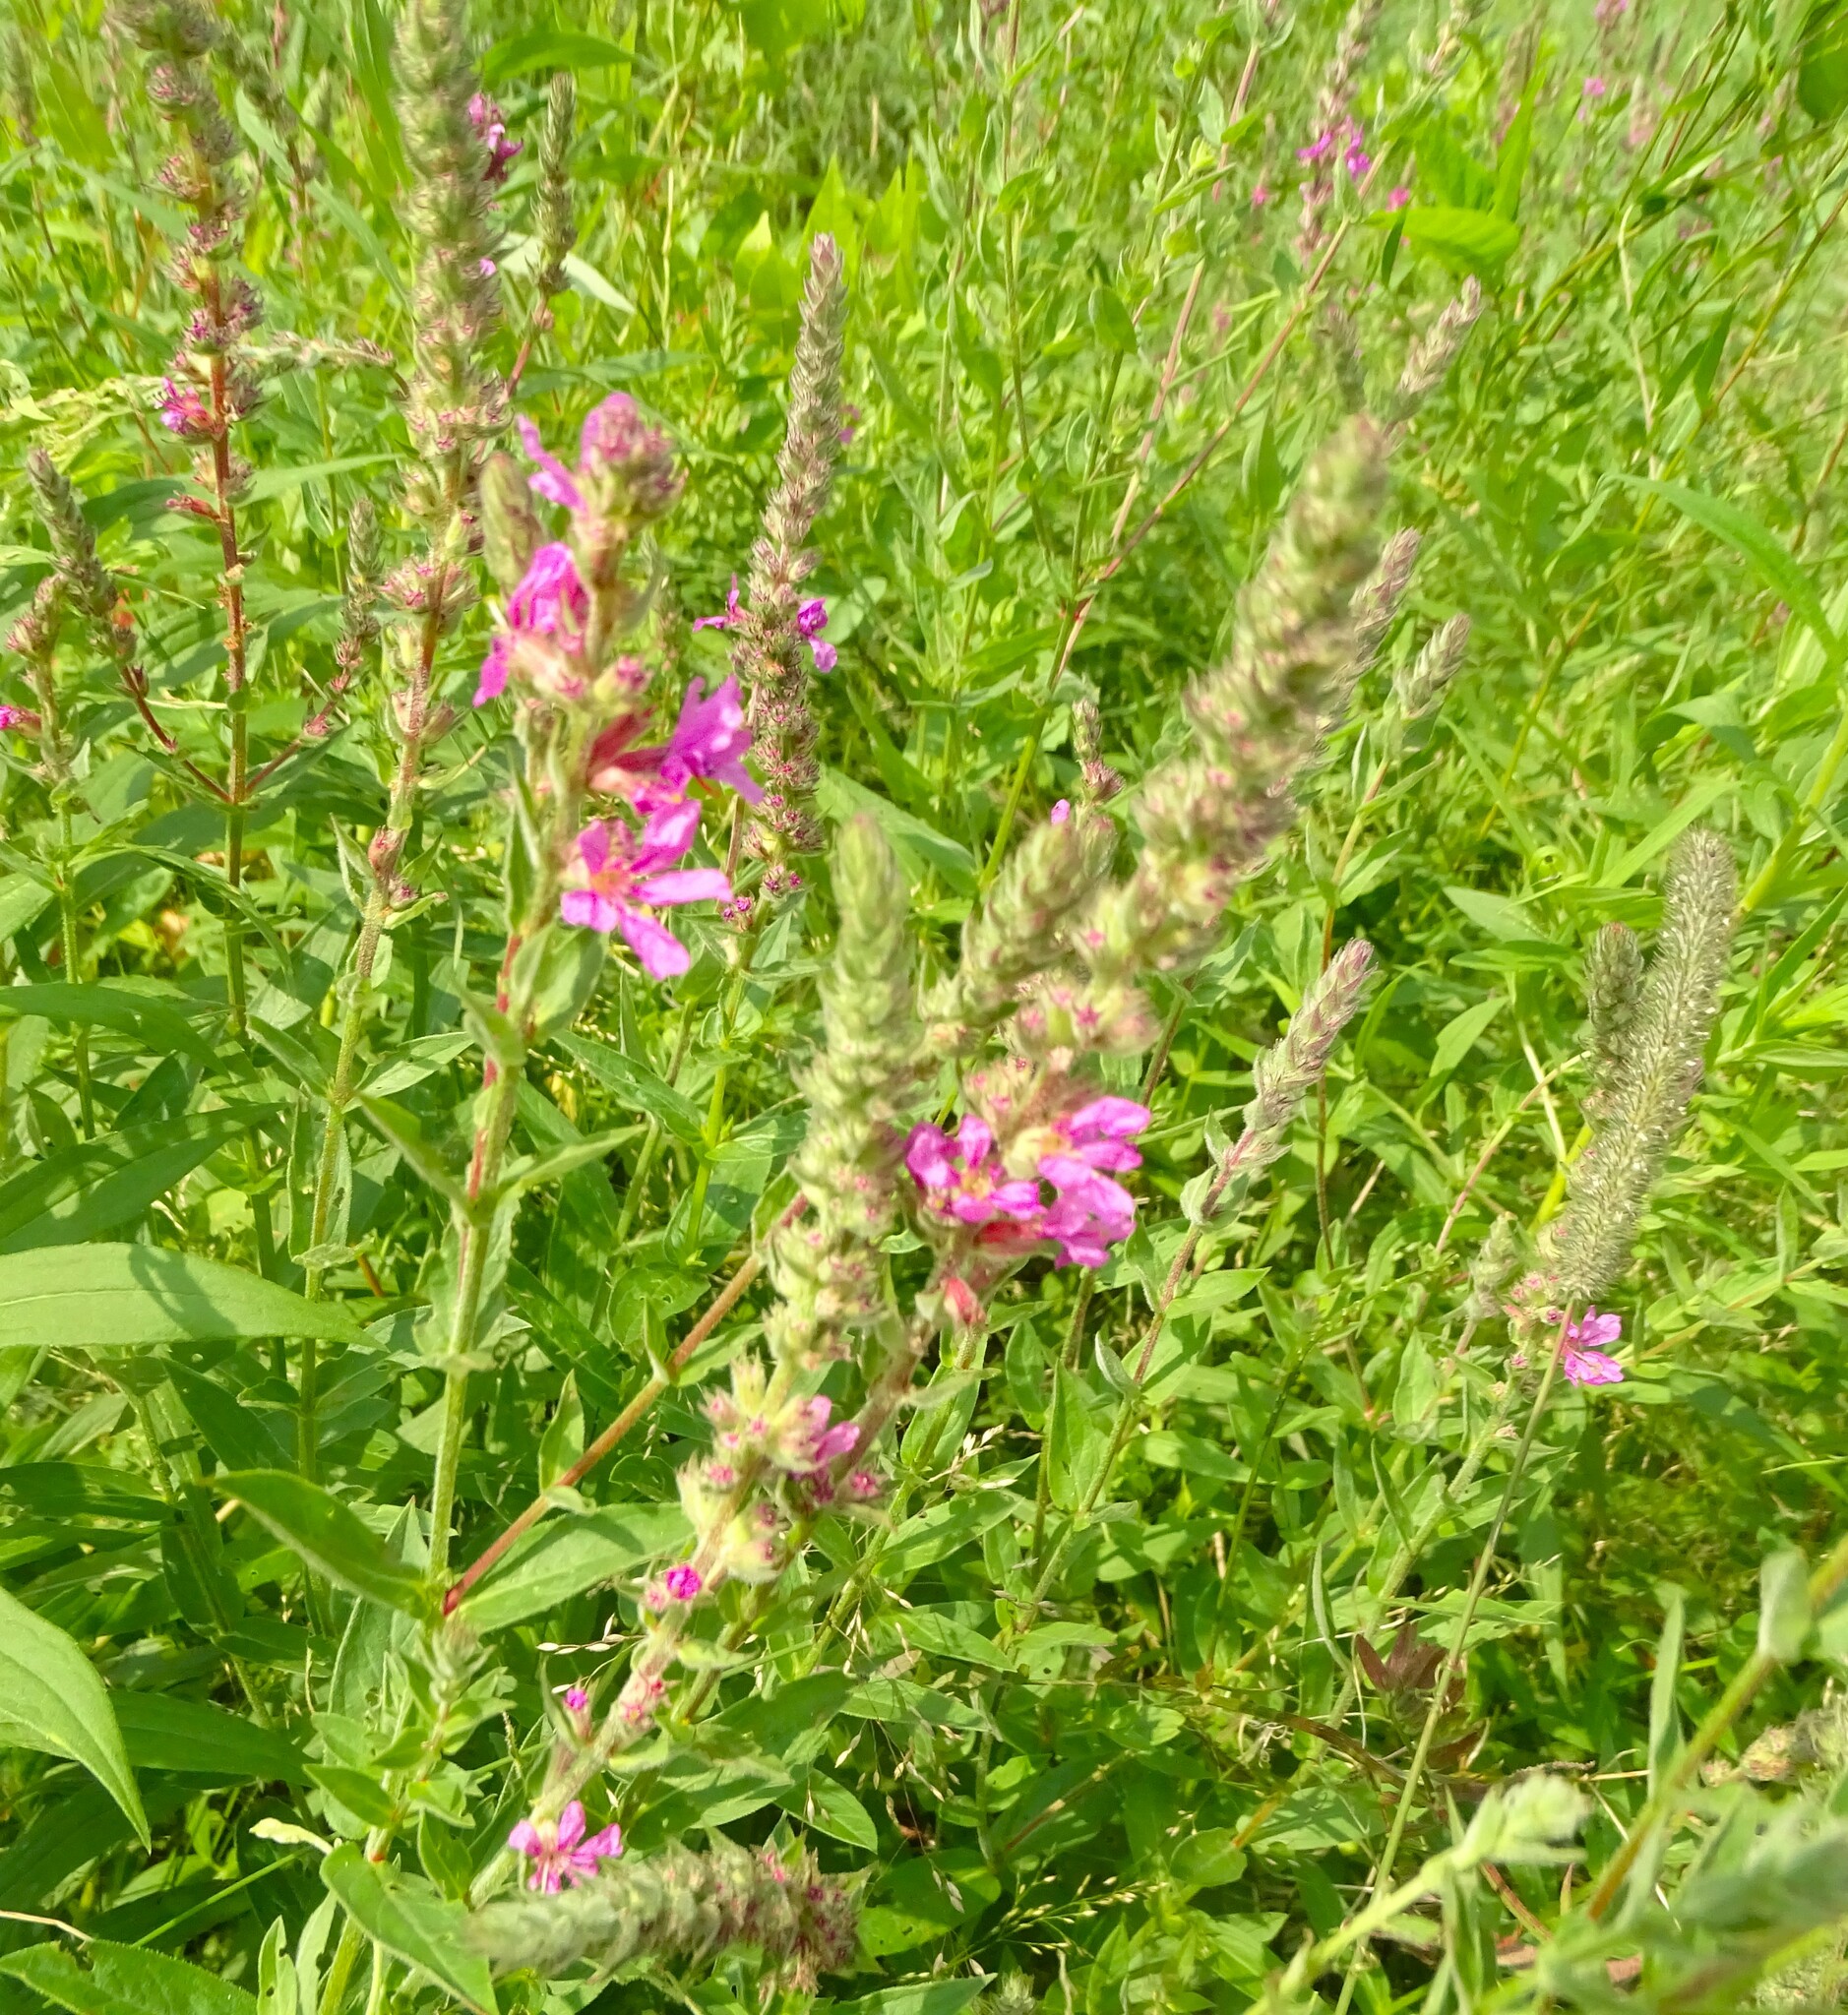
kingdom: Plantae
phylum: Tracheophyta
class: Magnoliopsida
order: Myrtales
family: Lythraceae
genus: Lythrum
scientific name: Lythrum salicaria
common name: Purple loosestrife
